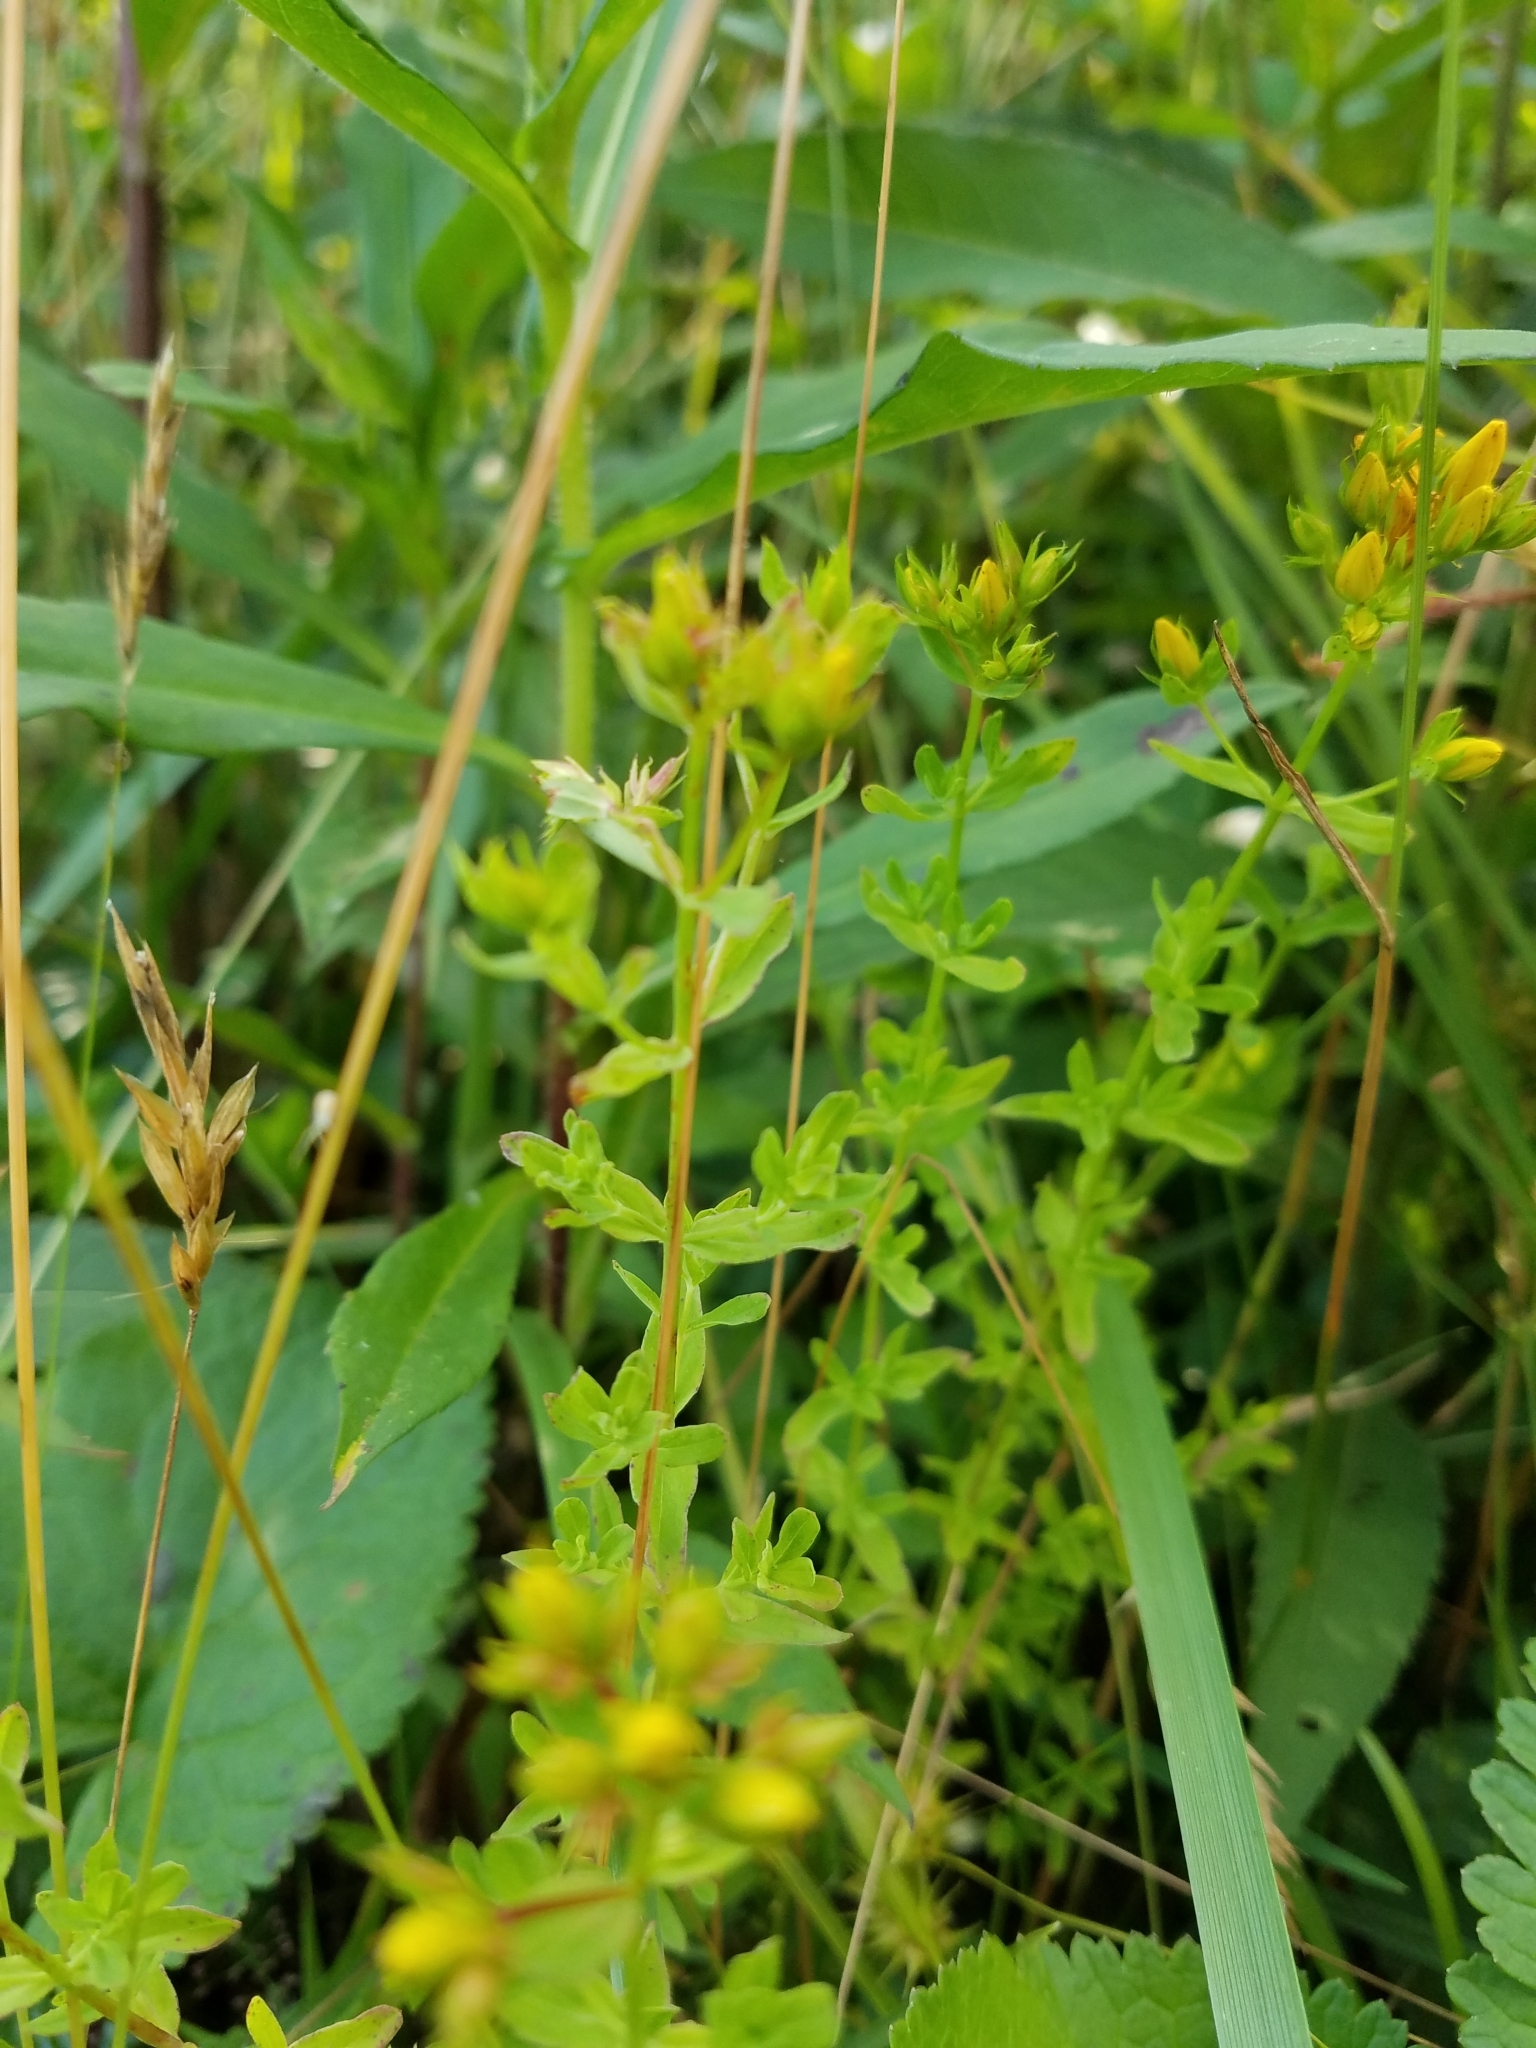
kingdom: Plantae
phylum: Tracheophyta
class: Magnoliopsida
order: Malpighiales
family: Hypericaceae
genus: Hypericum
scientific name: Hypericum perforatum
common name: Common st. johnswort
